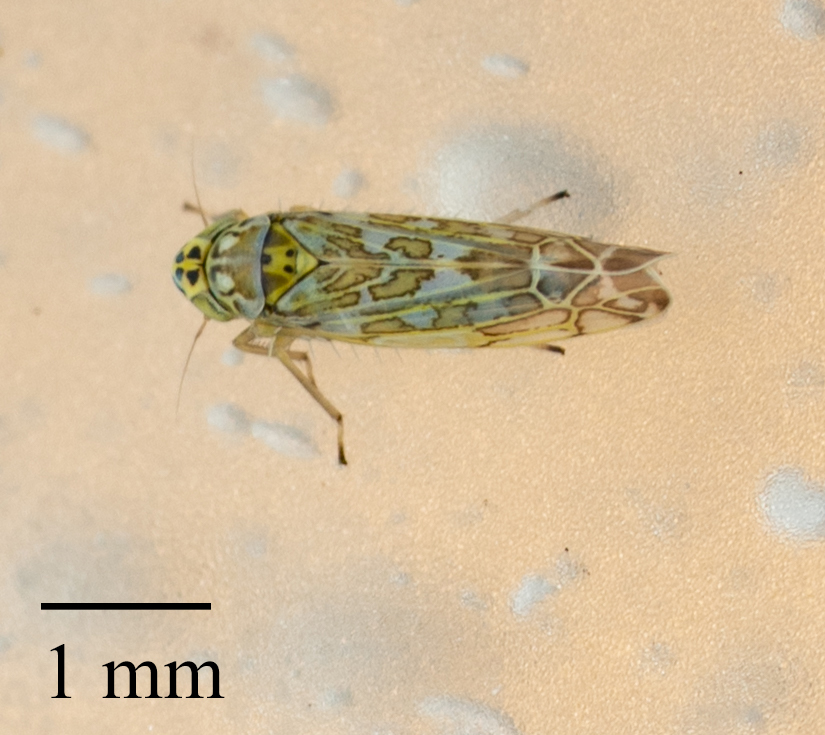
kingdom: Animalia
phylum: Arthropoda
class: Insecta
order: Hemiptera
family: Cicadellidae
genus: Eupteryx
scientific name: Eupteryx decemnotata
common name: Ligurian leafhopper
